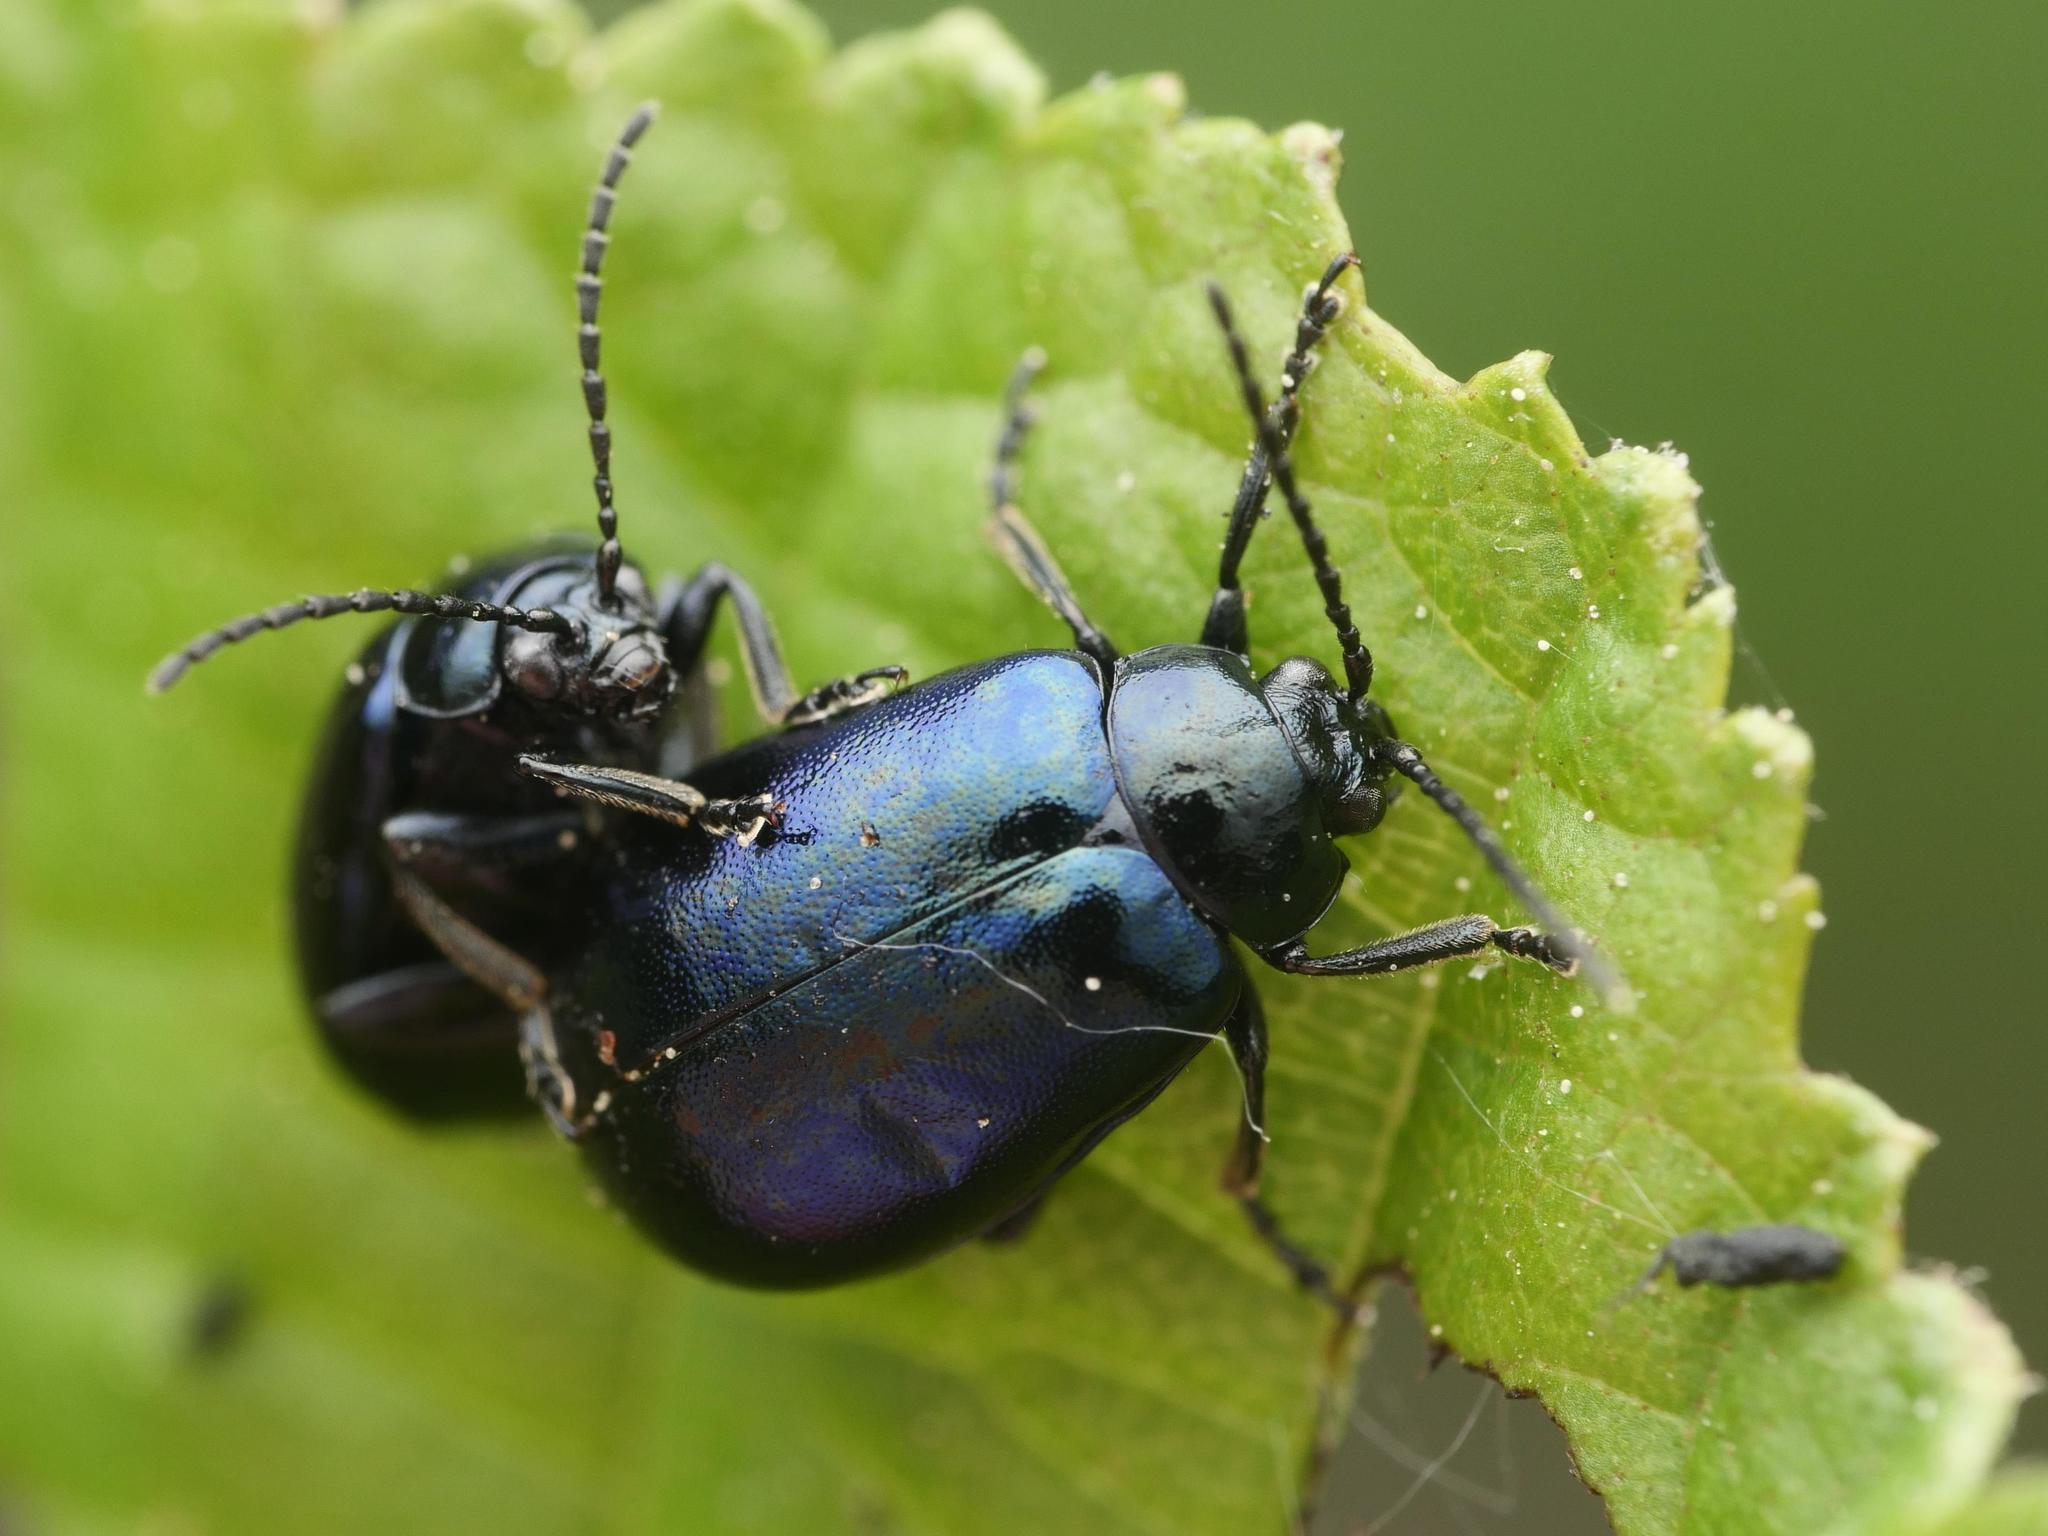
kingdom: Animalia
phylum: Arthropoda
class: Insecta
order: Coleoptera
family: Chrysomelidae
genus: Agelastica
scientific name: Agelastica alni
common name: Alder leaf beetle
